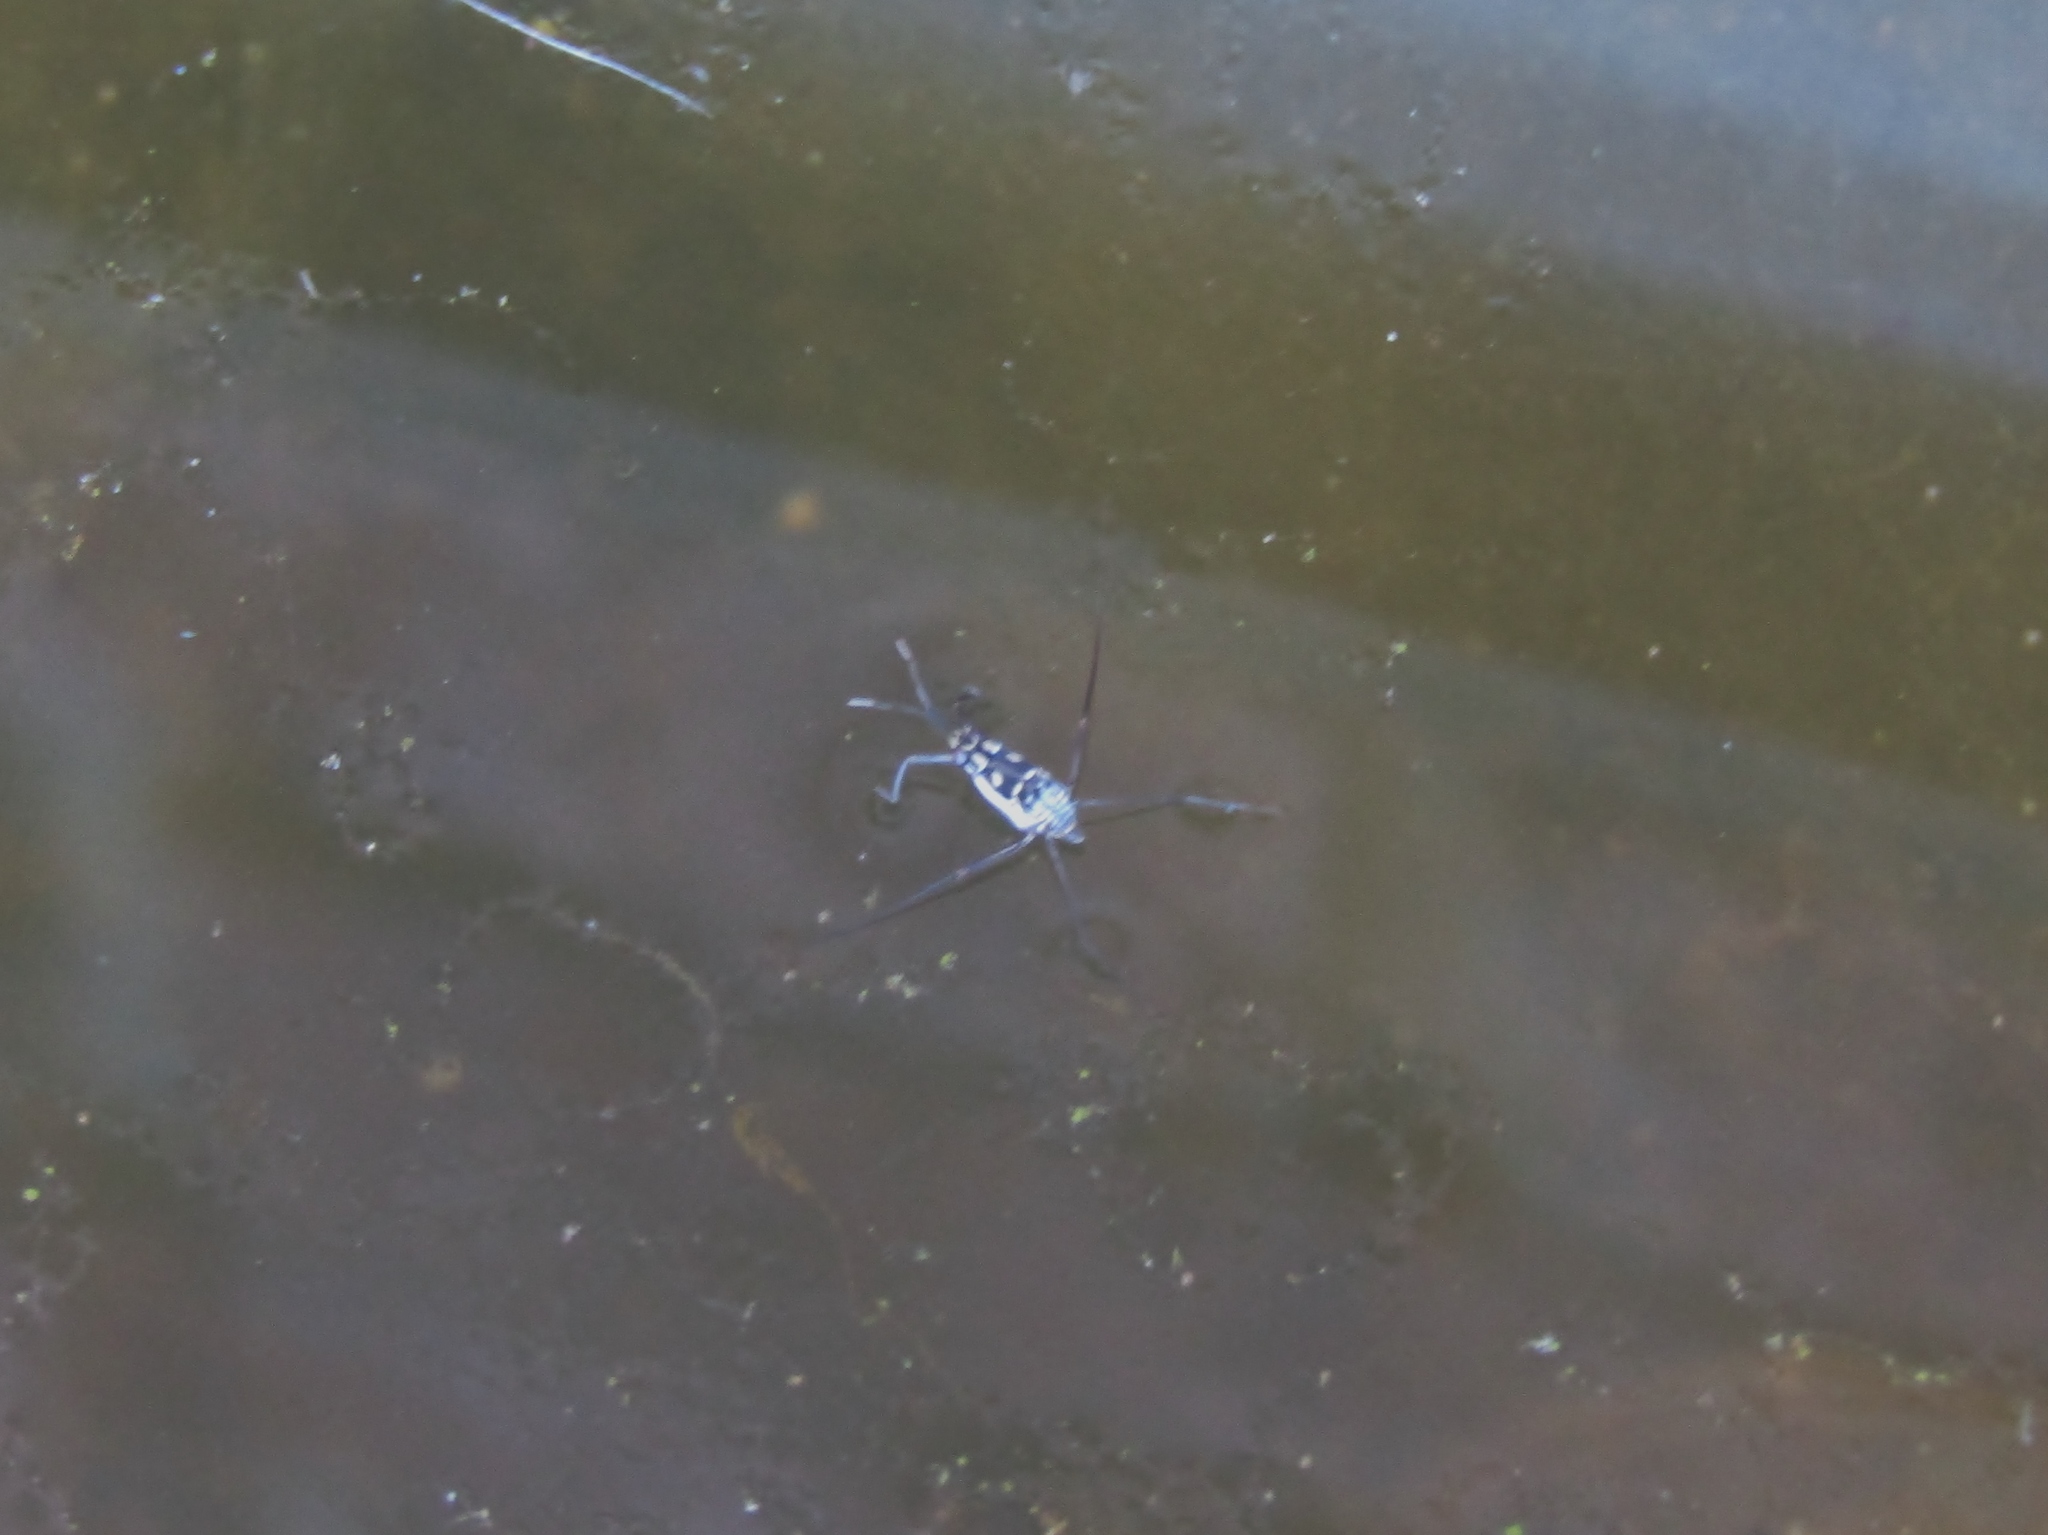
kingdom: Animalia
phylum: Arthropoda
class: Insecta
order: Hemiptera
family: Gerridae
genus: Trepobates
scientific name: Trepobates subnitidus
